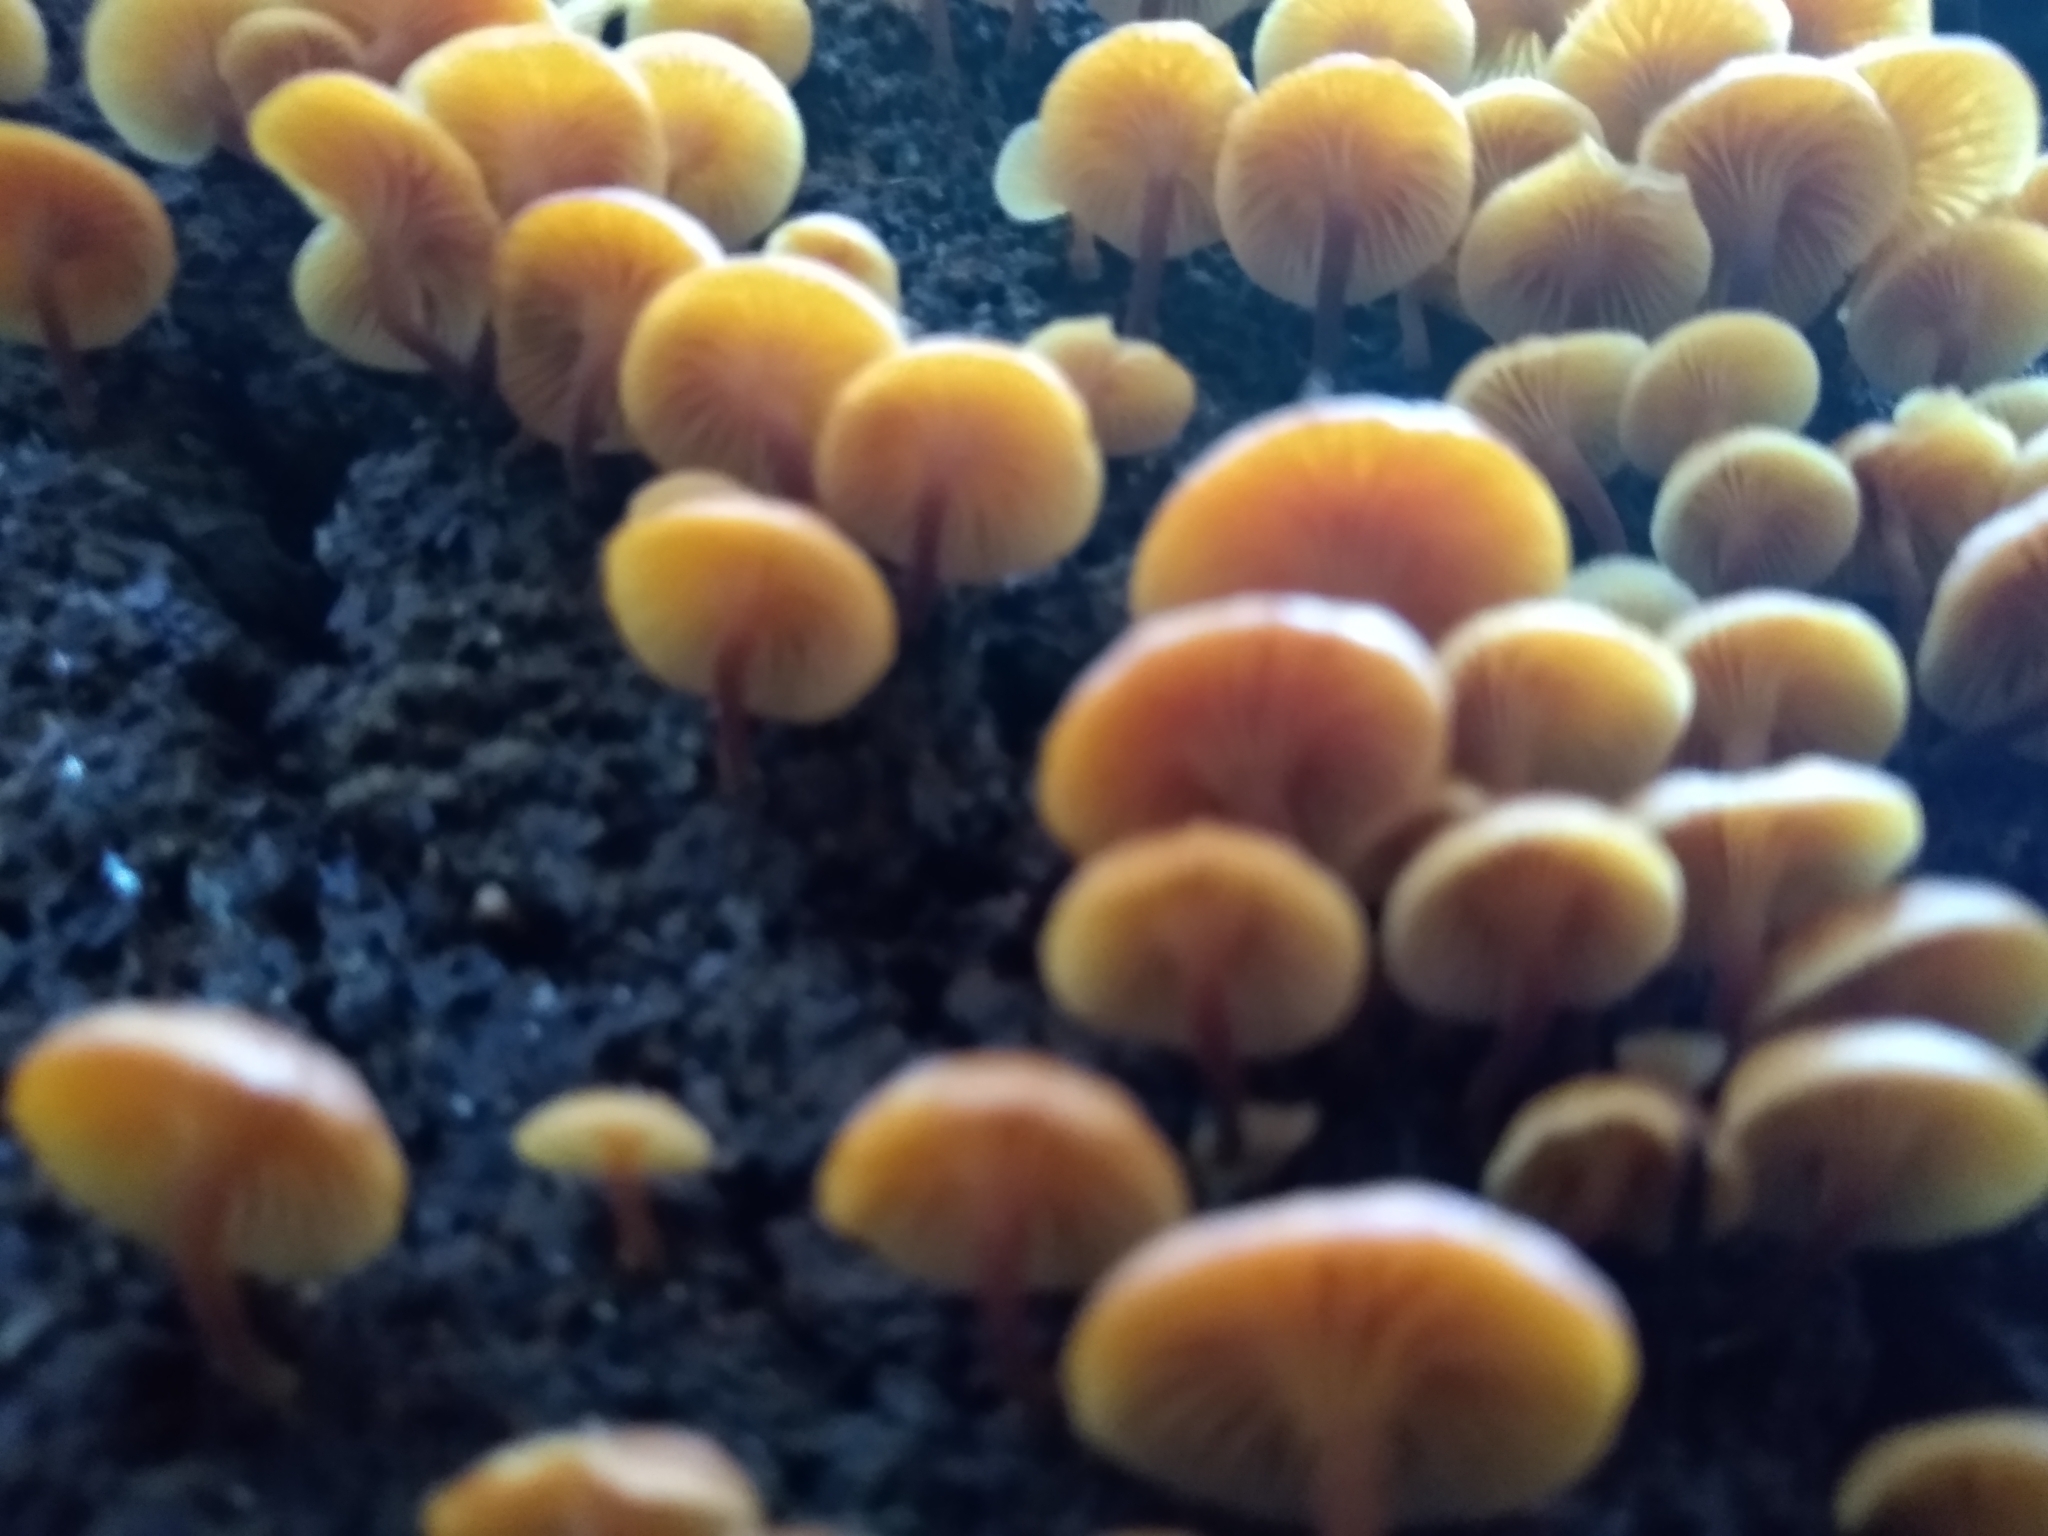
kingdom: Fungi
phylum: Basidiomycota
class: Agaricomycetes
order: Agaricales
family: Mycenaceae
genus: Xeromphalina
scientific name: Xeromphalina campanella
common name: Pinewood gingertail
